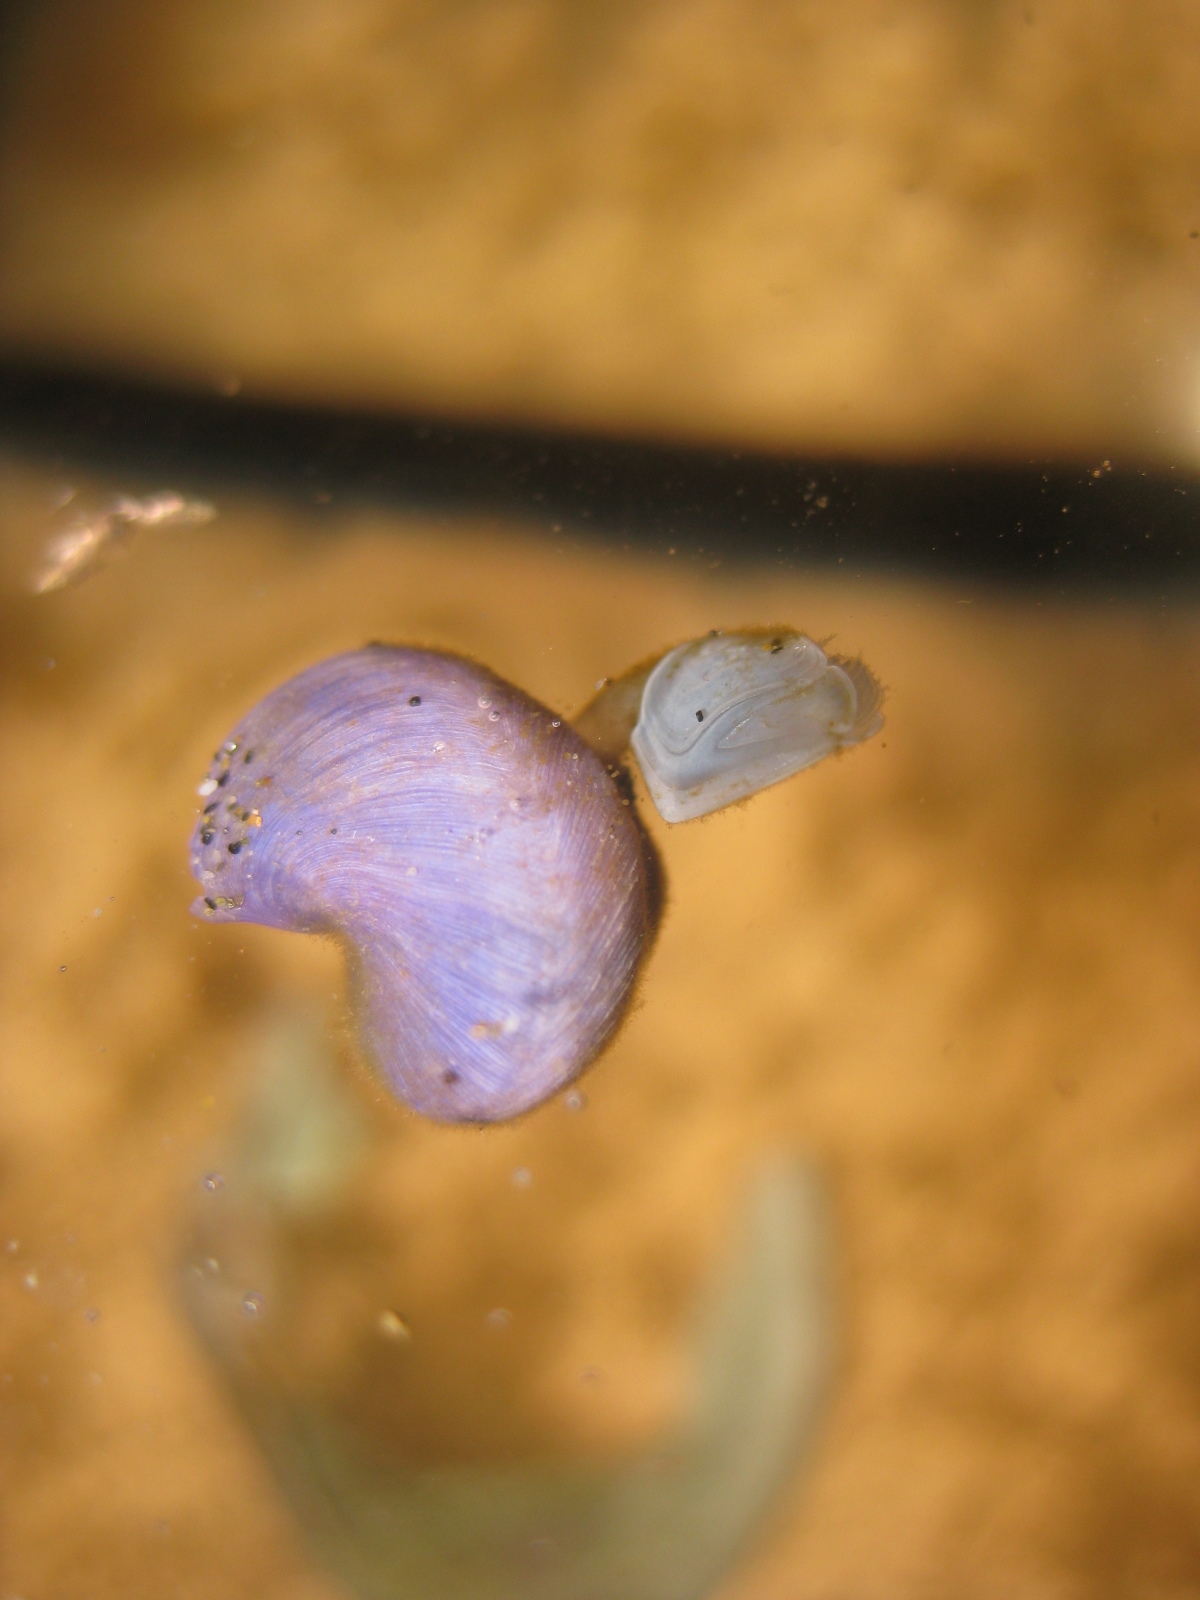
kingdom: Animalia
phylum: Arthropoda
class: Maxillopoda
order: Pedunculata
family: Lepadidae
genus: Dosima
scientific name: Dosima fascicularis
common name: Buoy barnacle
